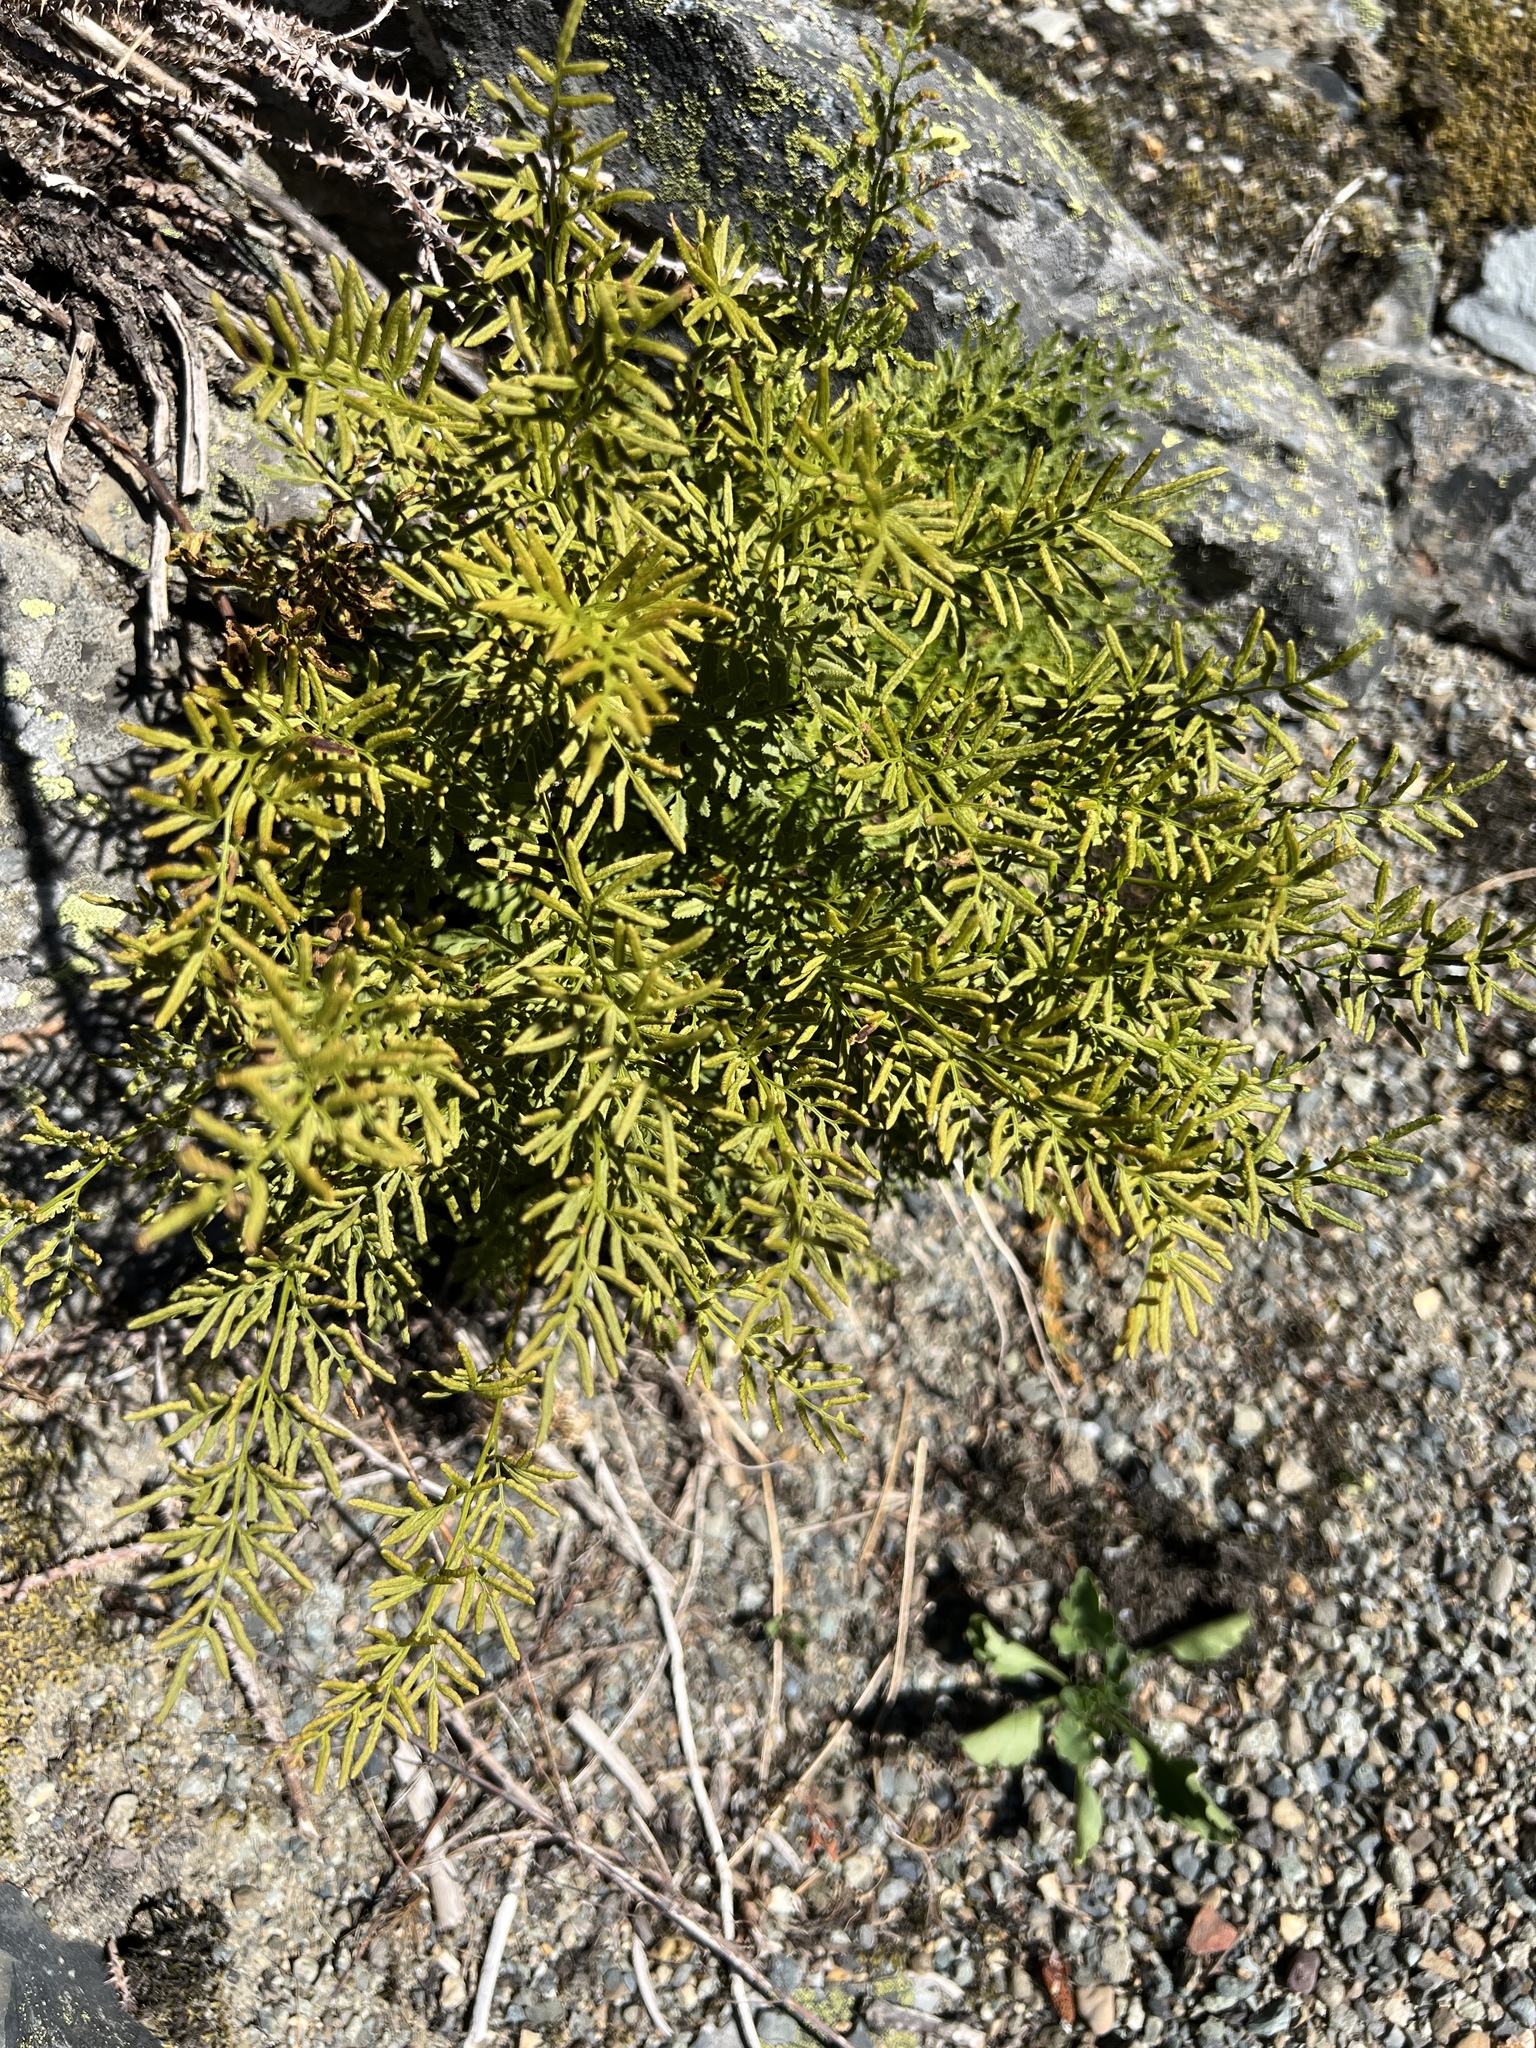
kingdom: Plantae
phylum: Tracheophyta
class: Polypodiopsida
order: Polypodiales
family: Pteridaceae
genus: Cryptogramma
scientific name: Cryptogramma acrostichoides
